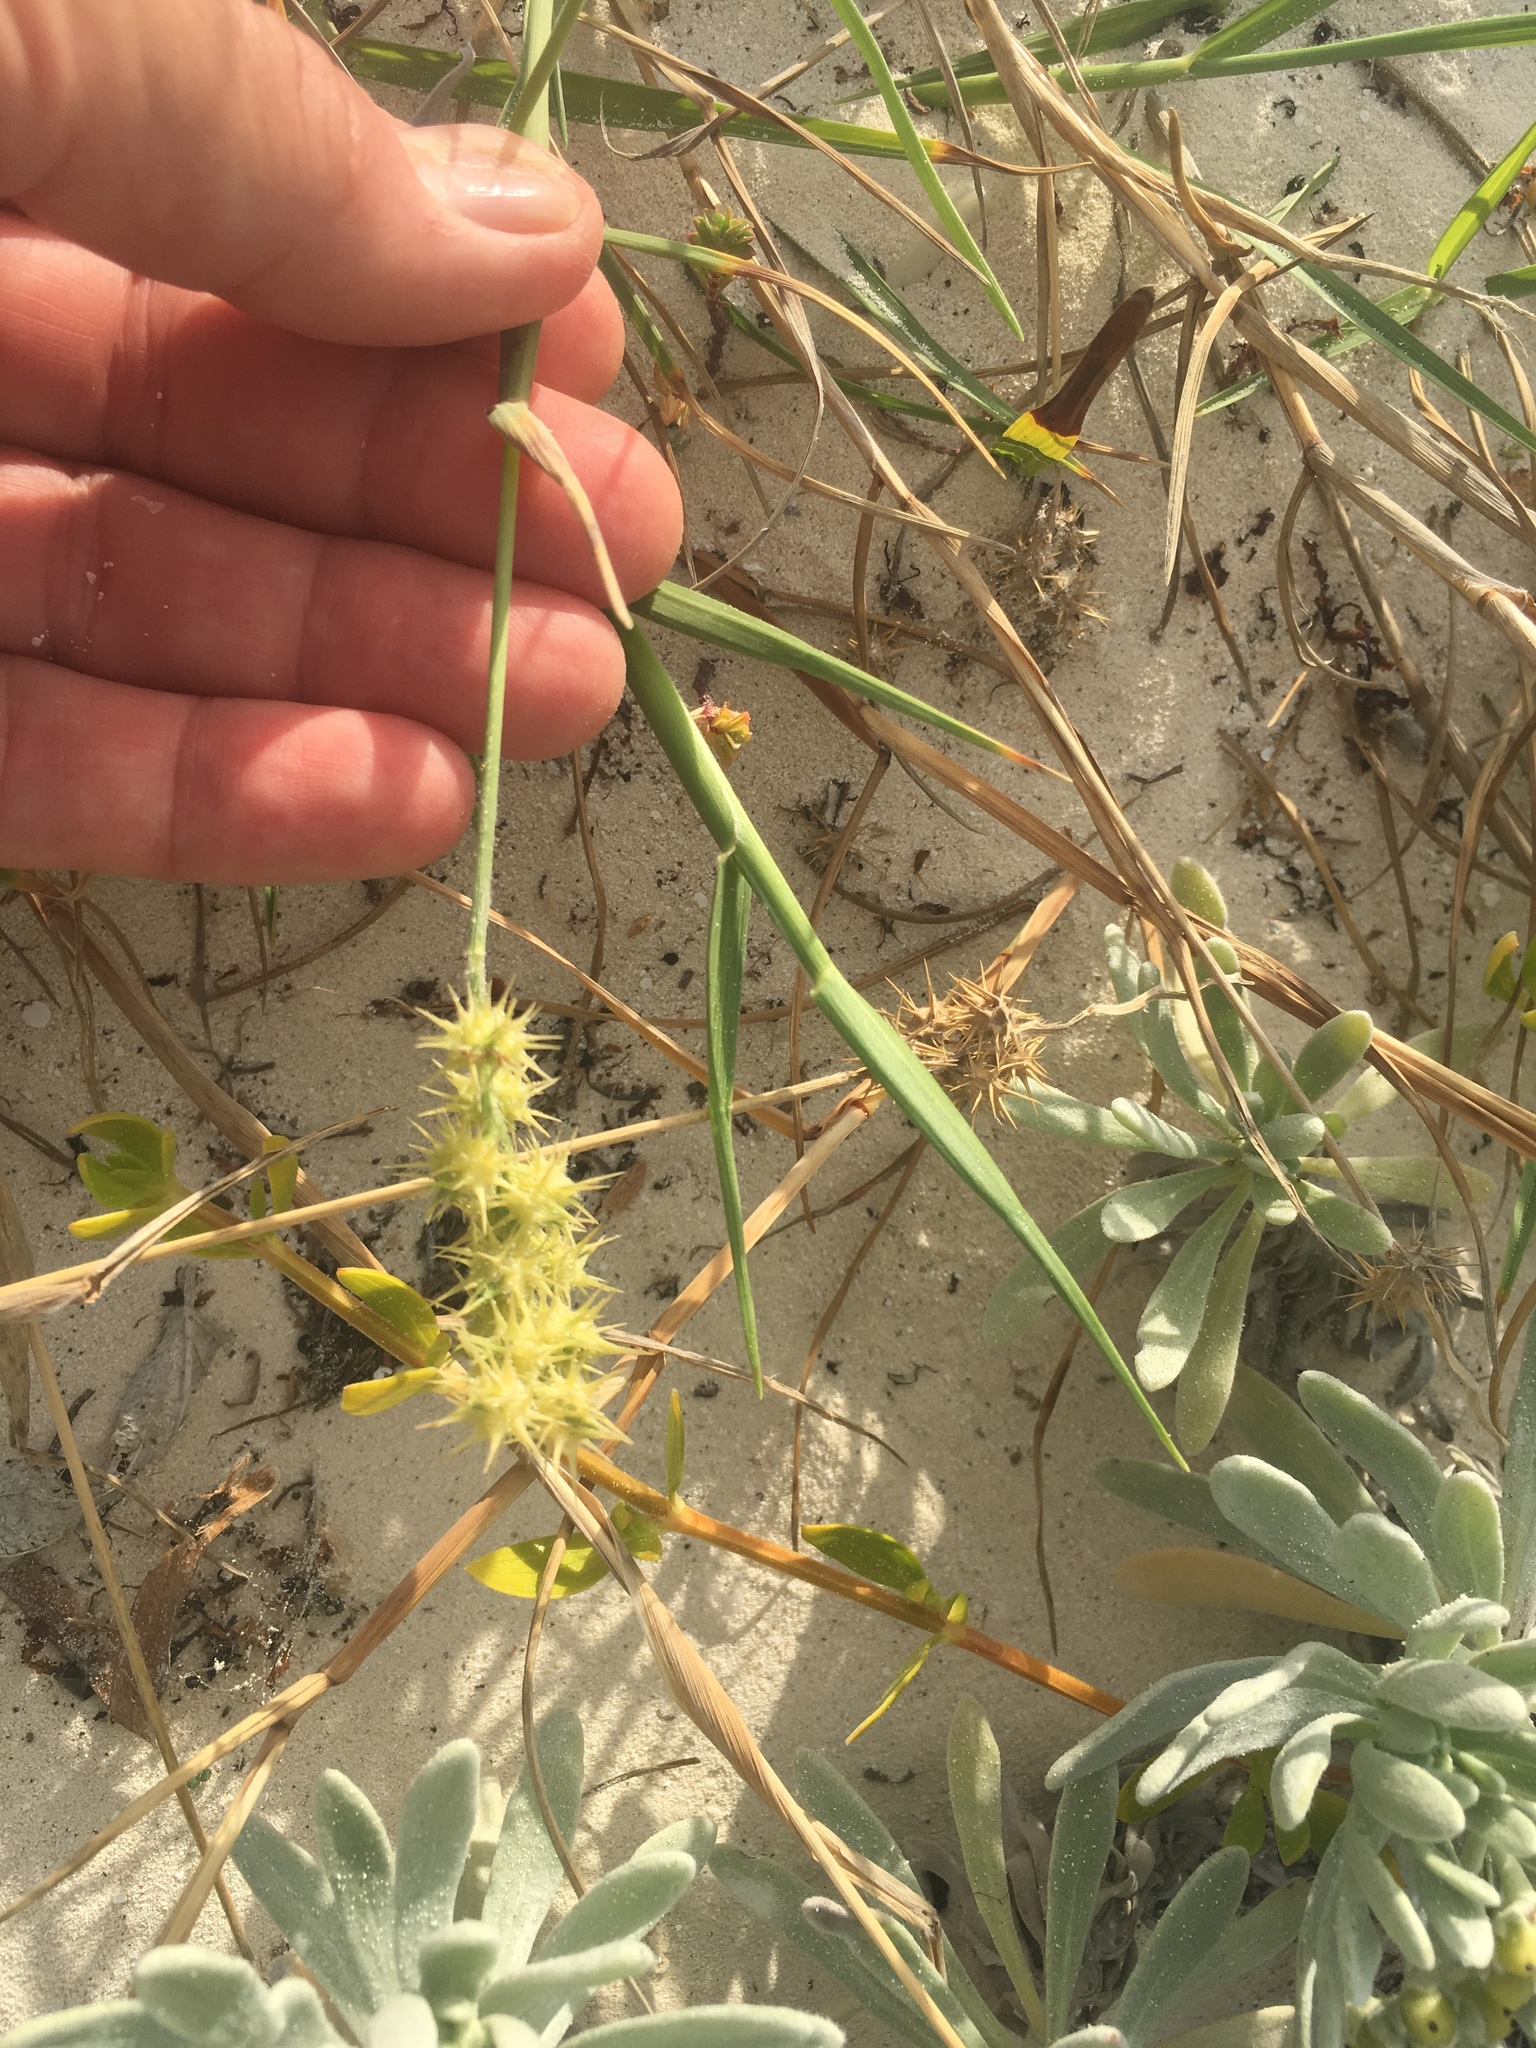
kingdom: Plantae
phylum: Tracheophyta
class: Liliopsida
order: Poales
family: Poaceae
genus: Cenchrus
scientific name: Cenchrus spinifex
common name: Coast sandbur
